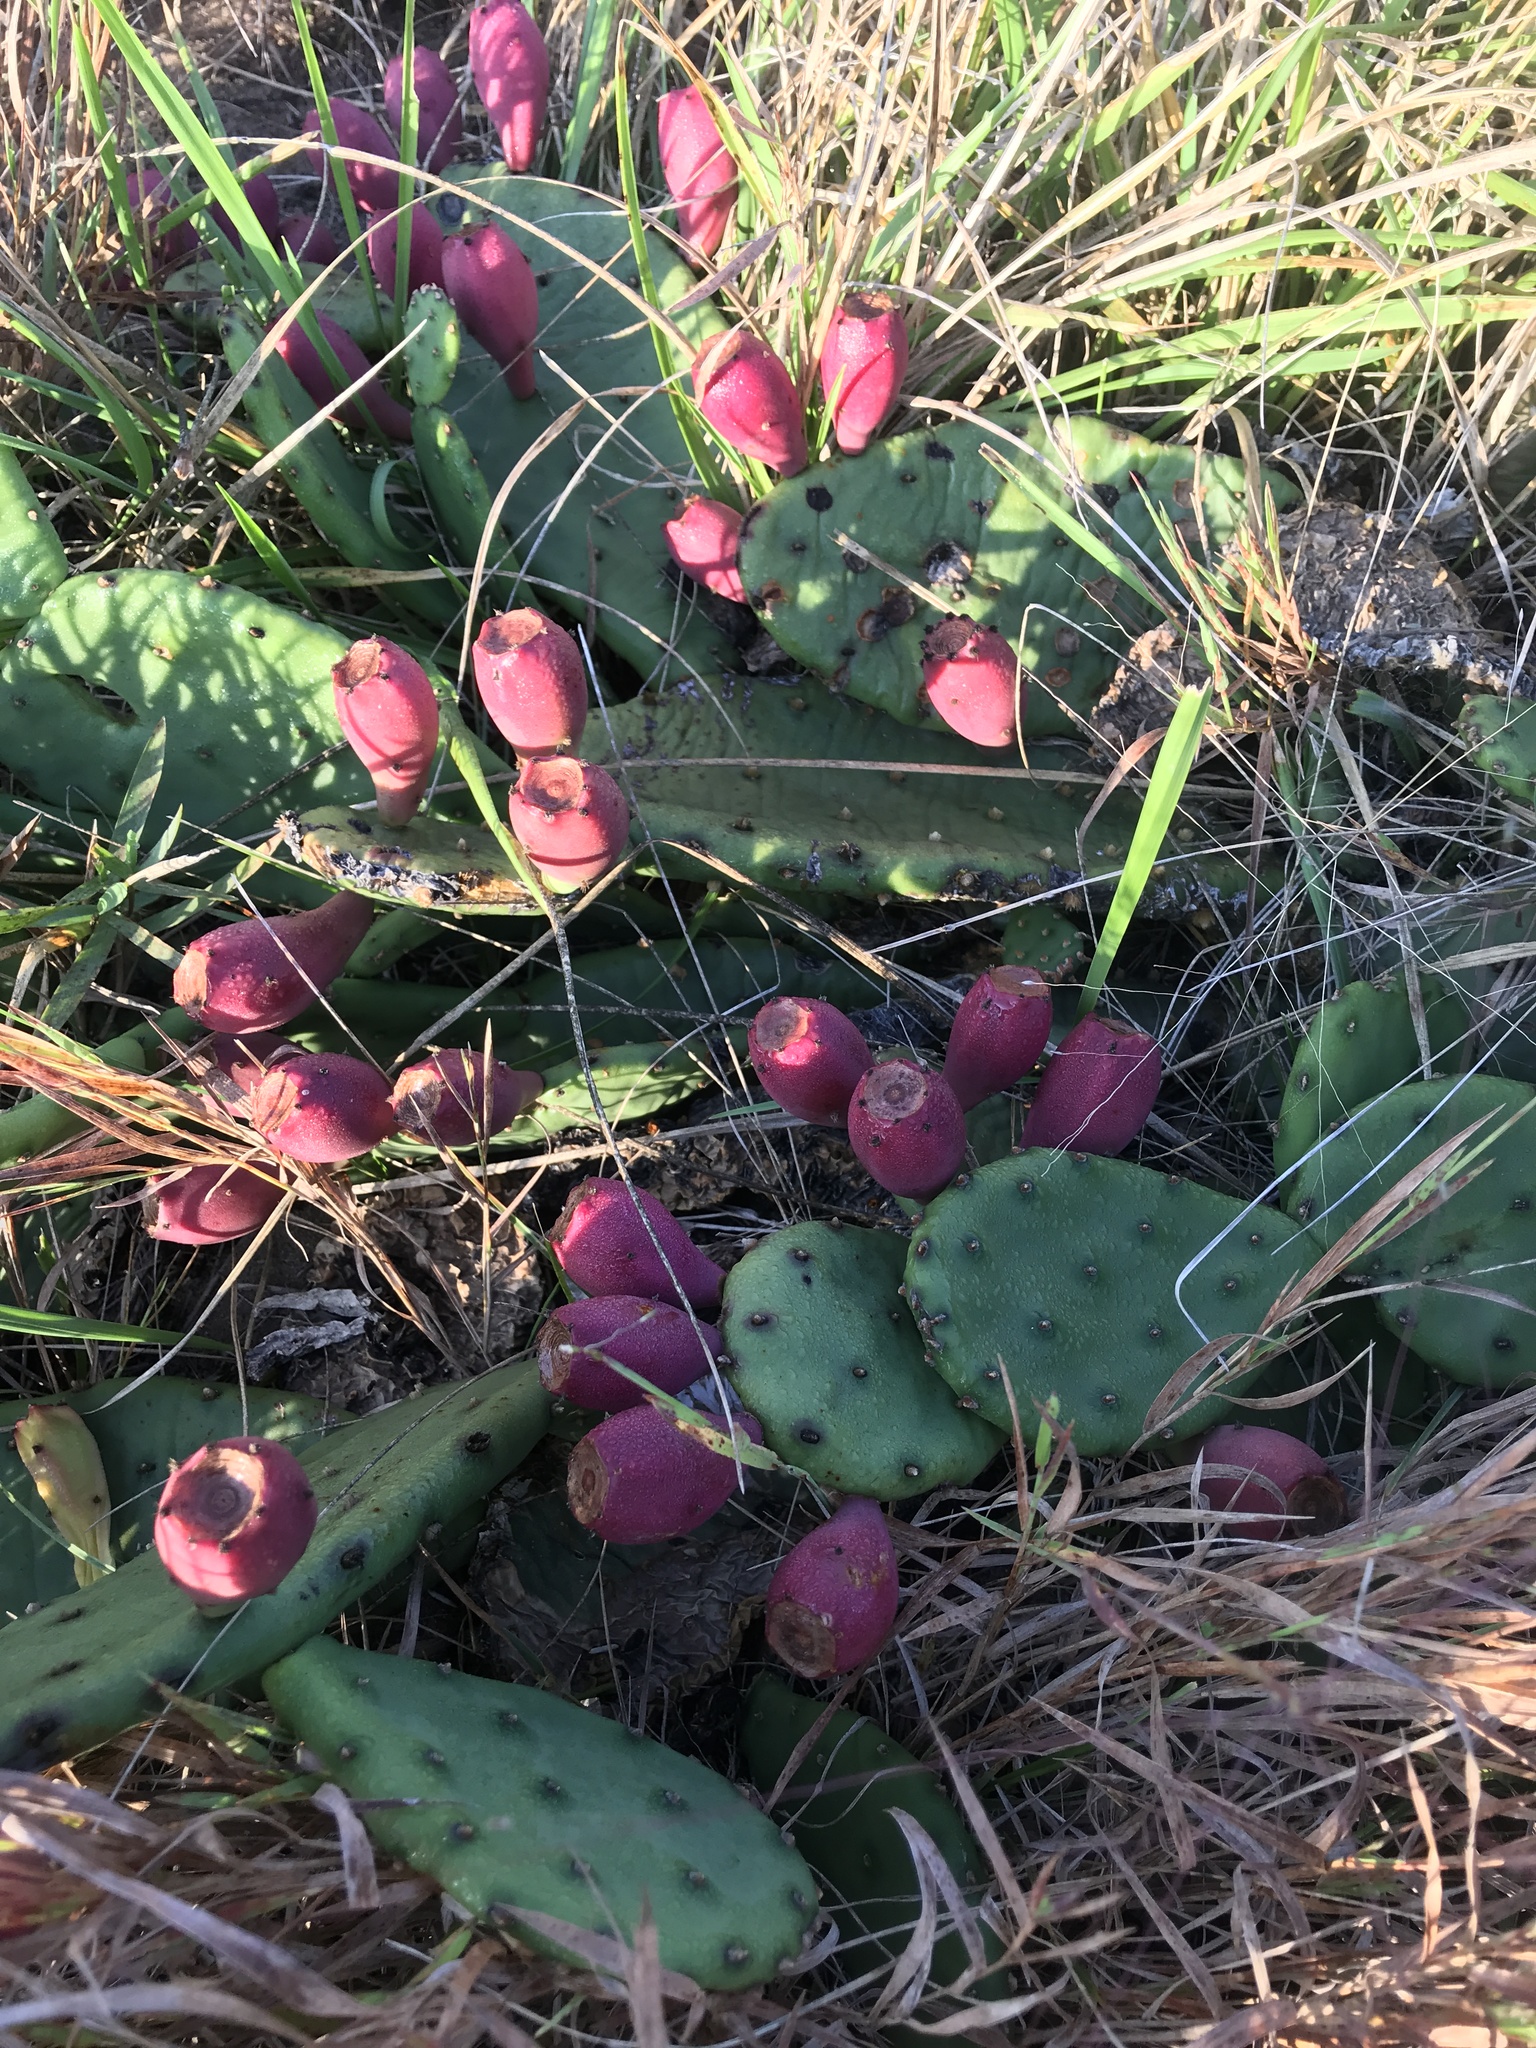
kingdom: Plantae
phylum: Tracheophyta
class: Magnoliopsida
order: Caryophyllales
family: Cactaceae
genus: Opuntia
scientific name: Opuntia humifusa
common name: Eastern prickly-pear
